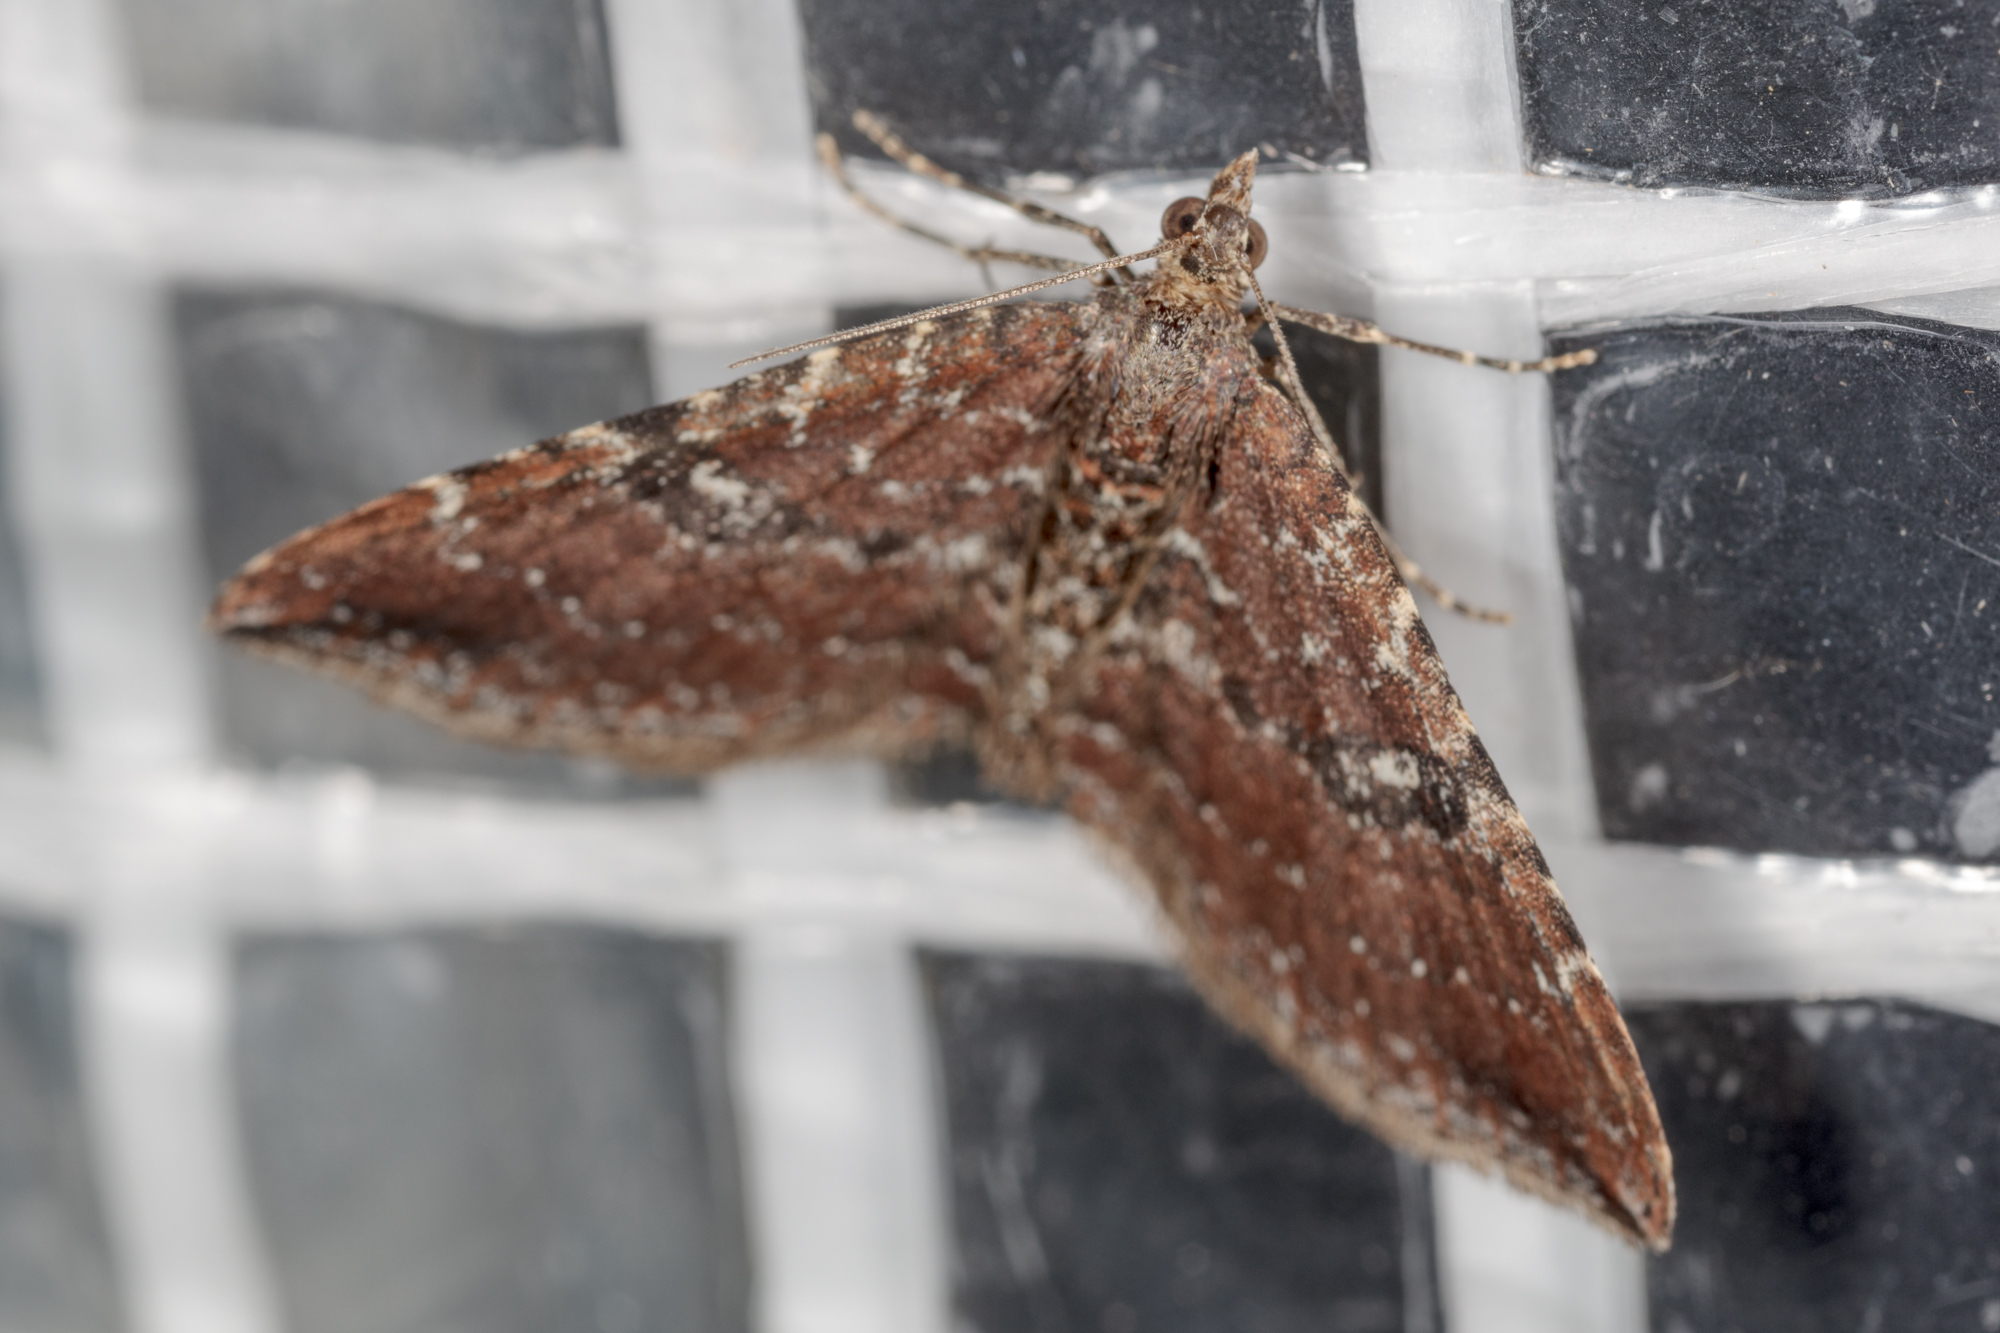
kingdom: Animalia
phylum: Arthropoda
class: Insecta
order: Lepidoptera
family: Geometridae
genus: Orthonama
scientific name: Orthonama obstipata
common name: The gem
